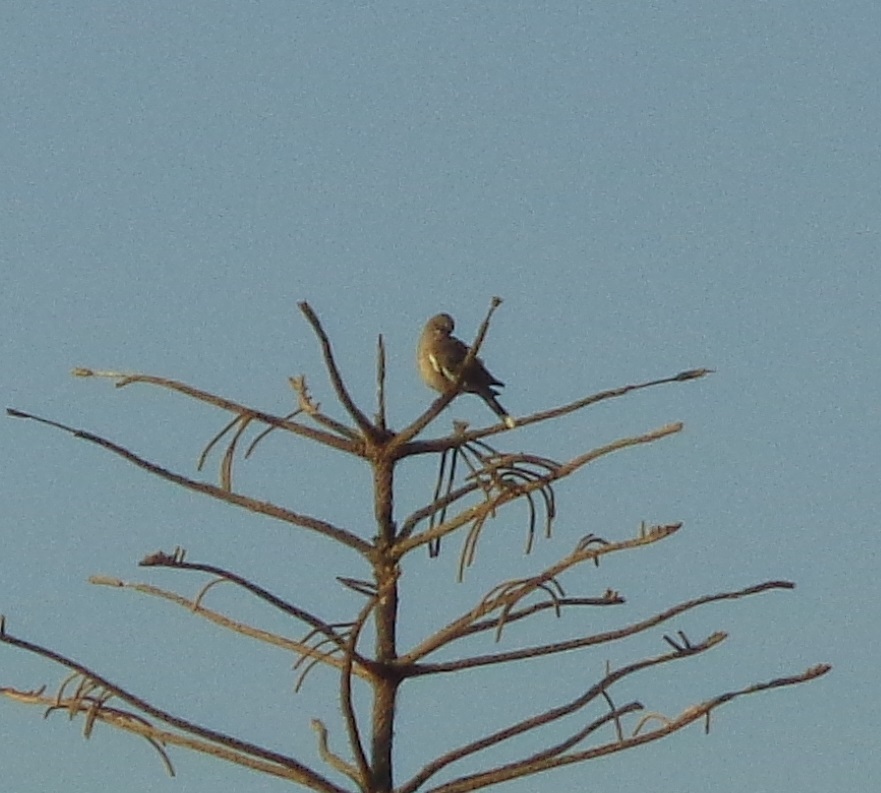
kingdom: Animalia
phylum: Chordata
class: Aves
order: Columbiformes
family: Columbidae
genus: Zenaida
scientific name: Zenaida asiatica
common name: White-winged dove
